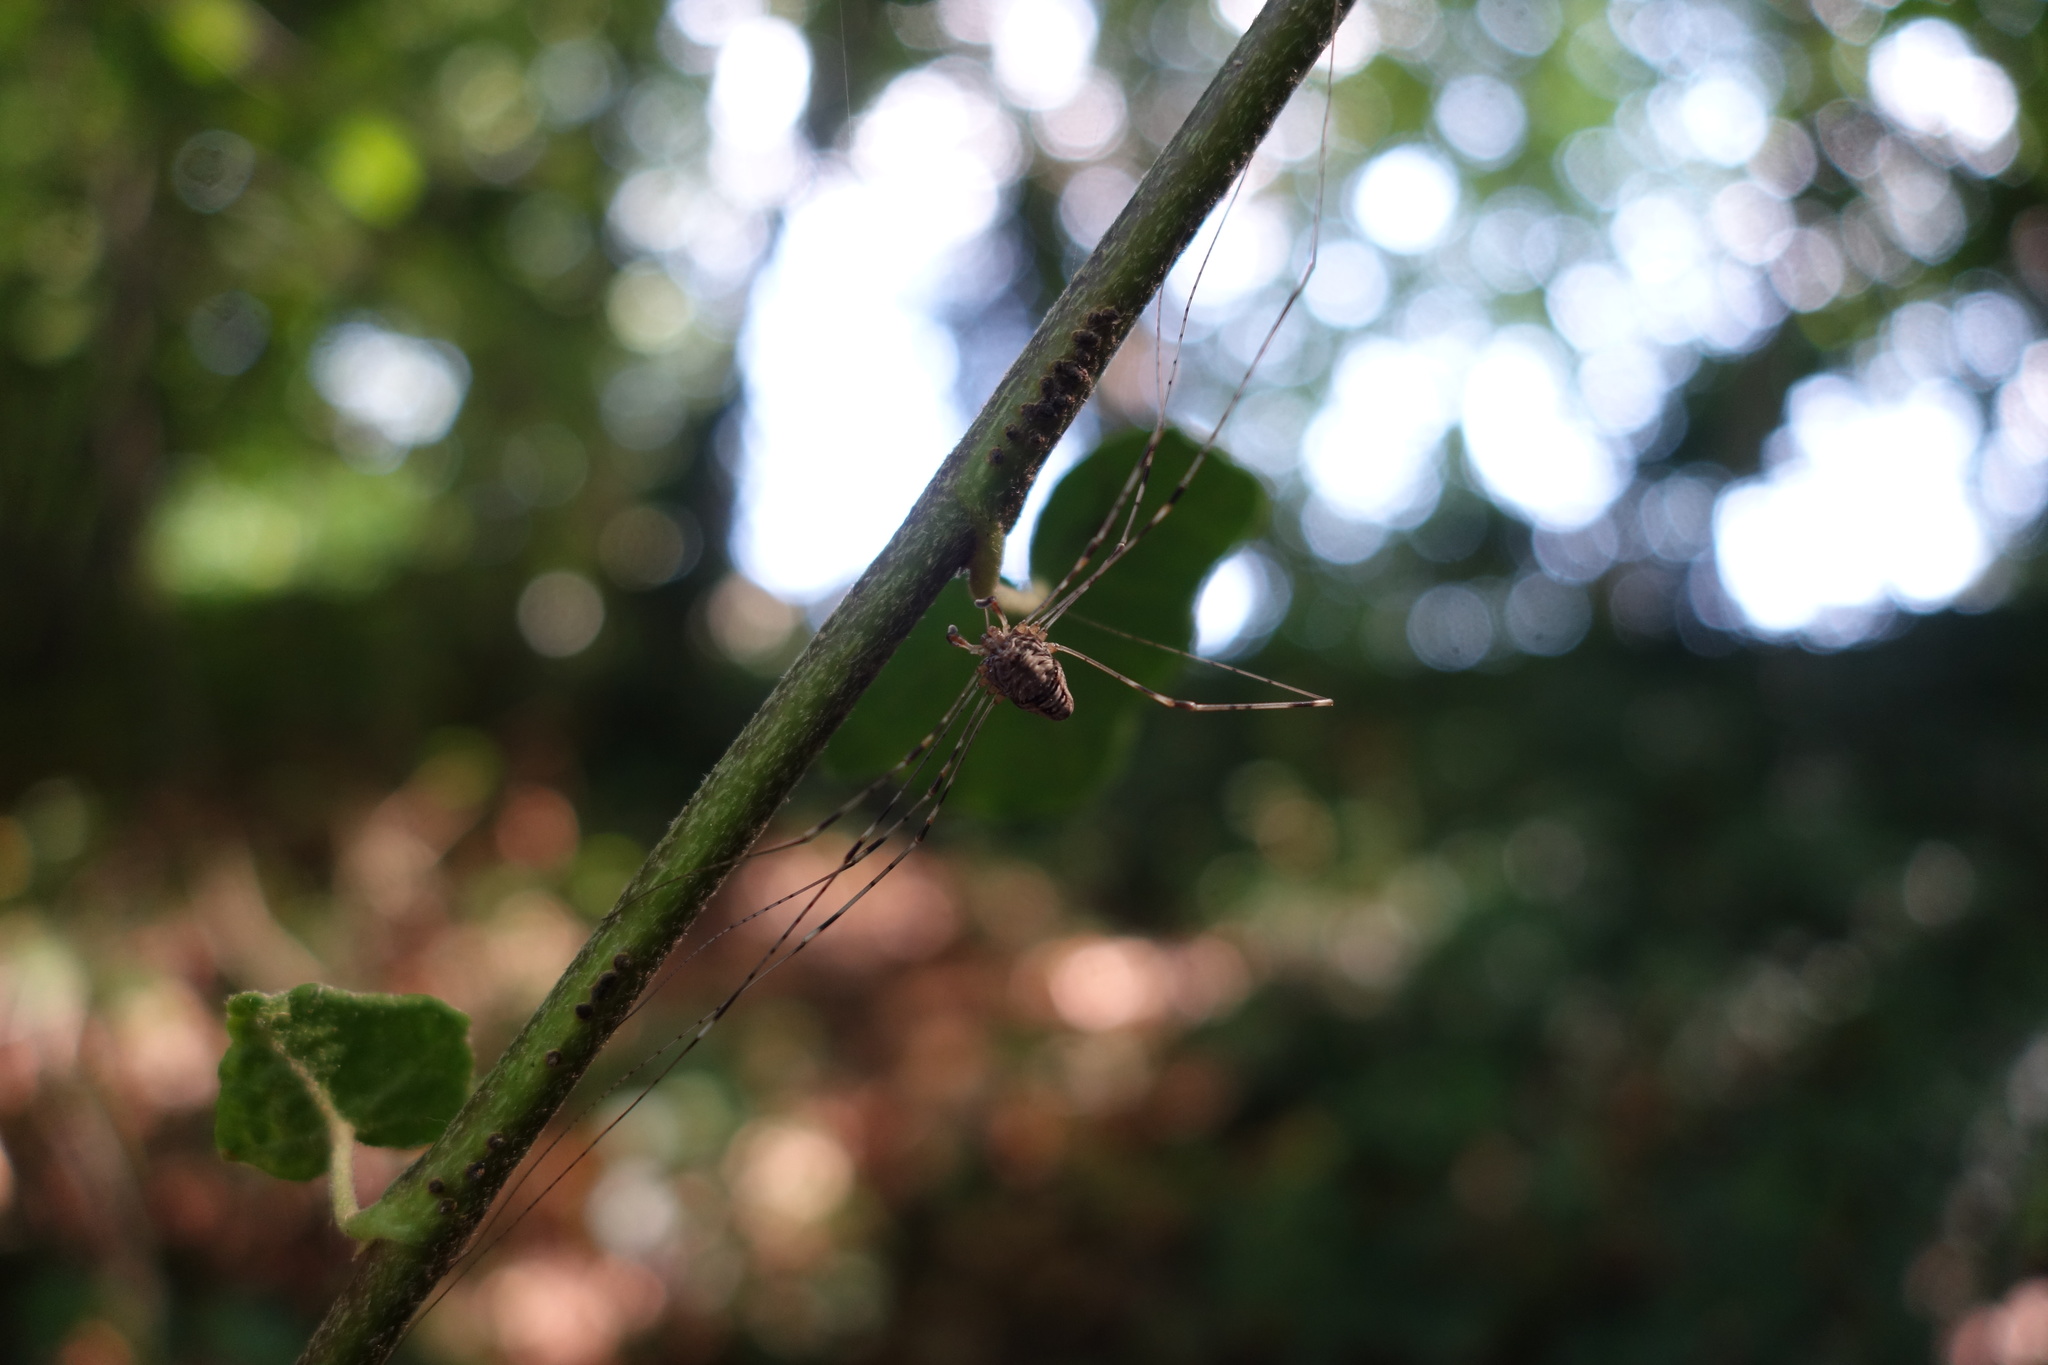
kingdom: Animalia
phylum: Arthropoda
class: Arachnida
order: Opiliones
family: Phalangiidae
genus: Dicranopalpus
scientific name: Dicranopalpus ramosus
